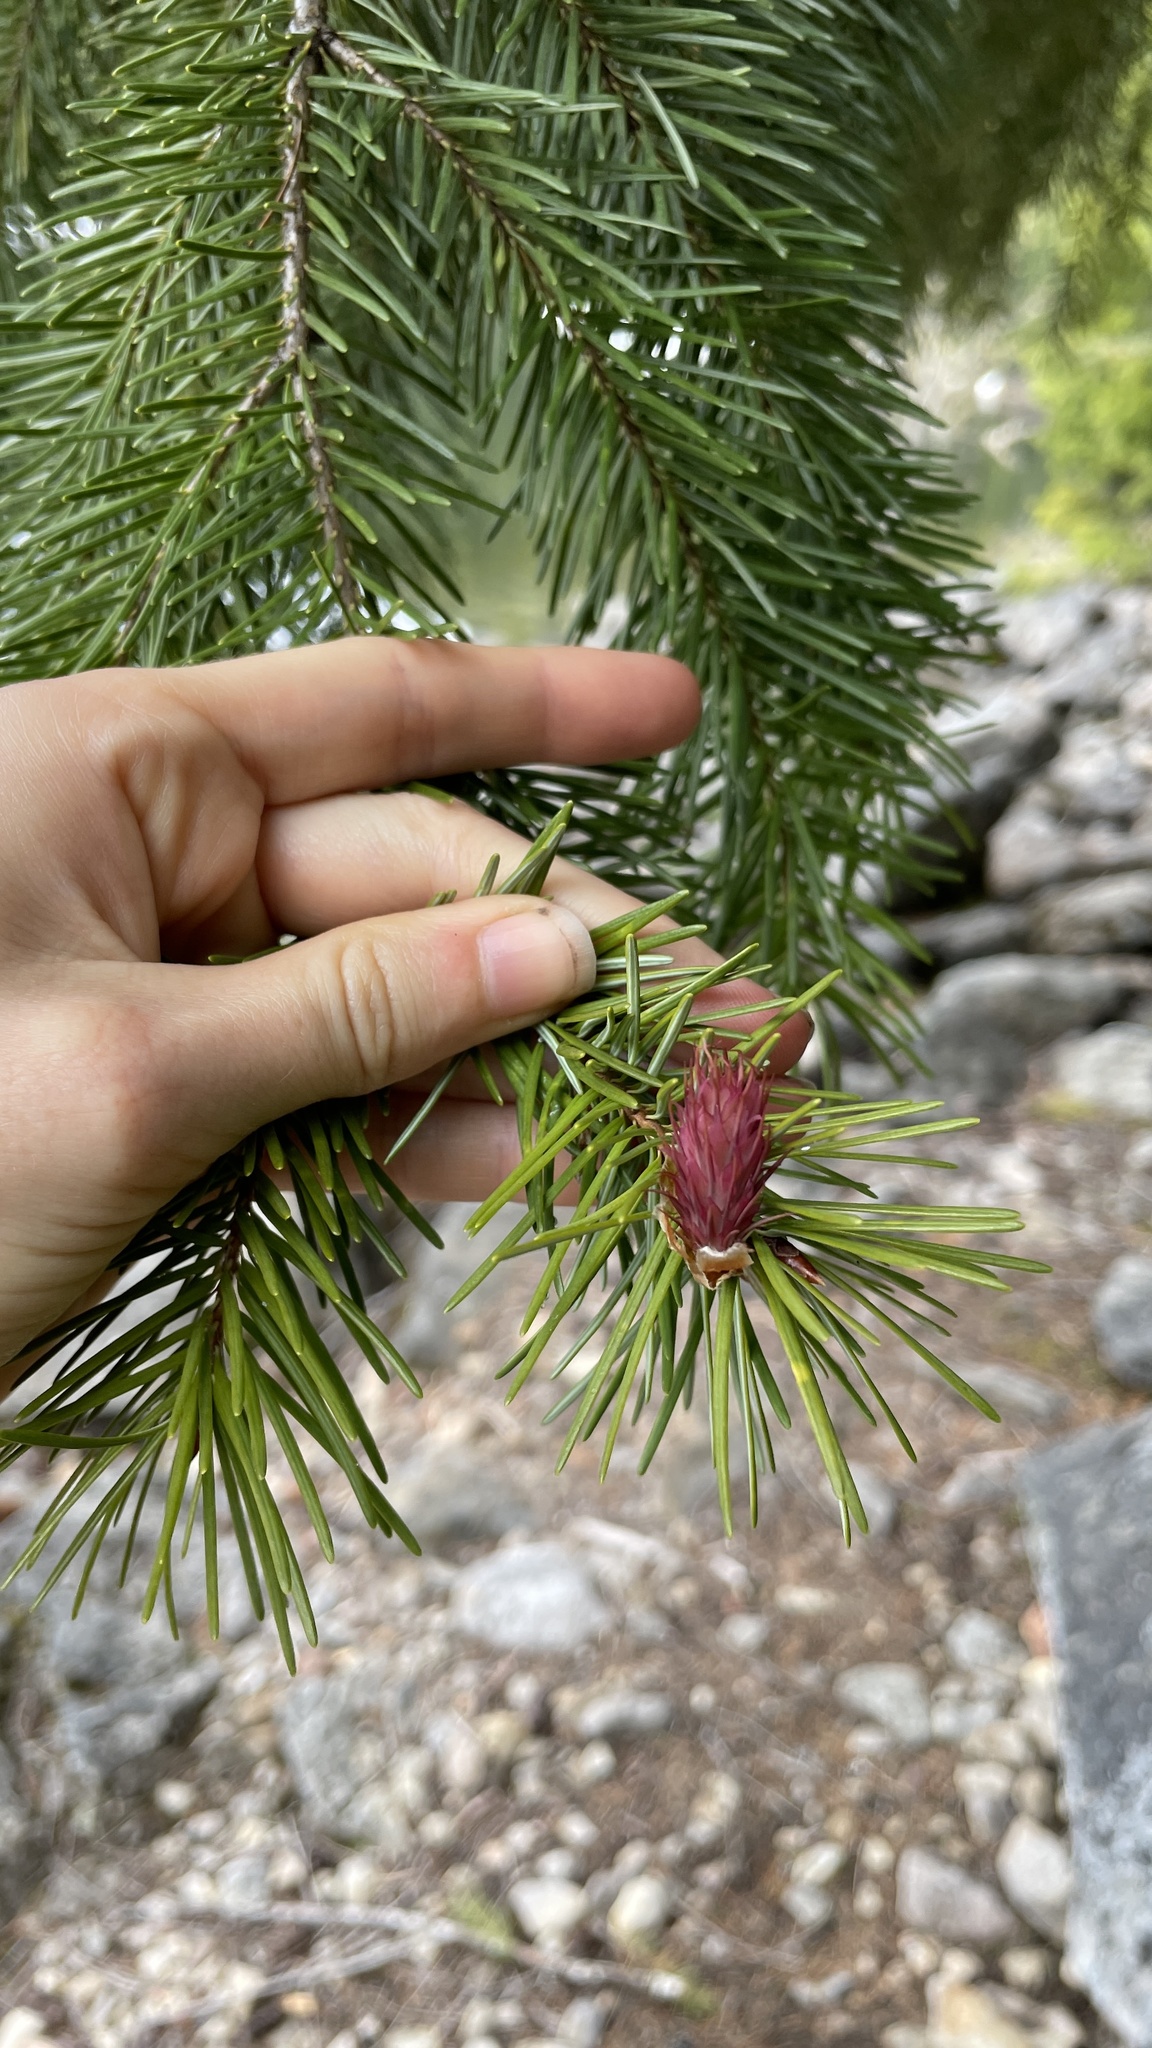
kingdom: Plantae
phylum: Tracheophyta
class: Pinopsida
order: Pinales
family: Pinaceae
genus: Pseudotsuga
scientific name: Pseudotsuga menziesii
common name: Douglas fir
